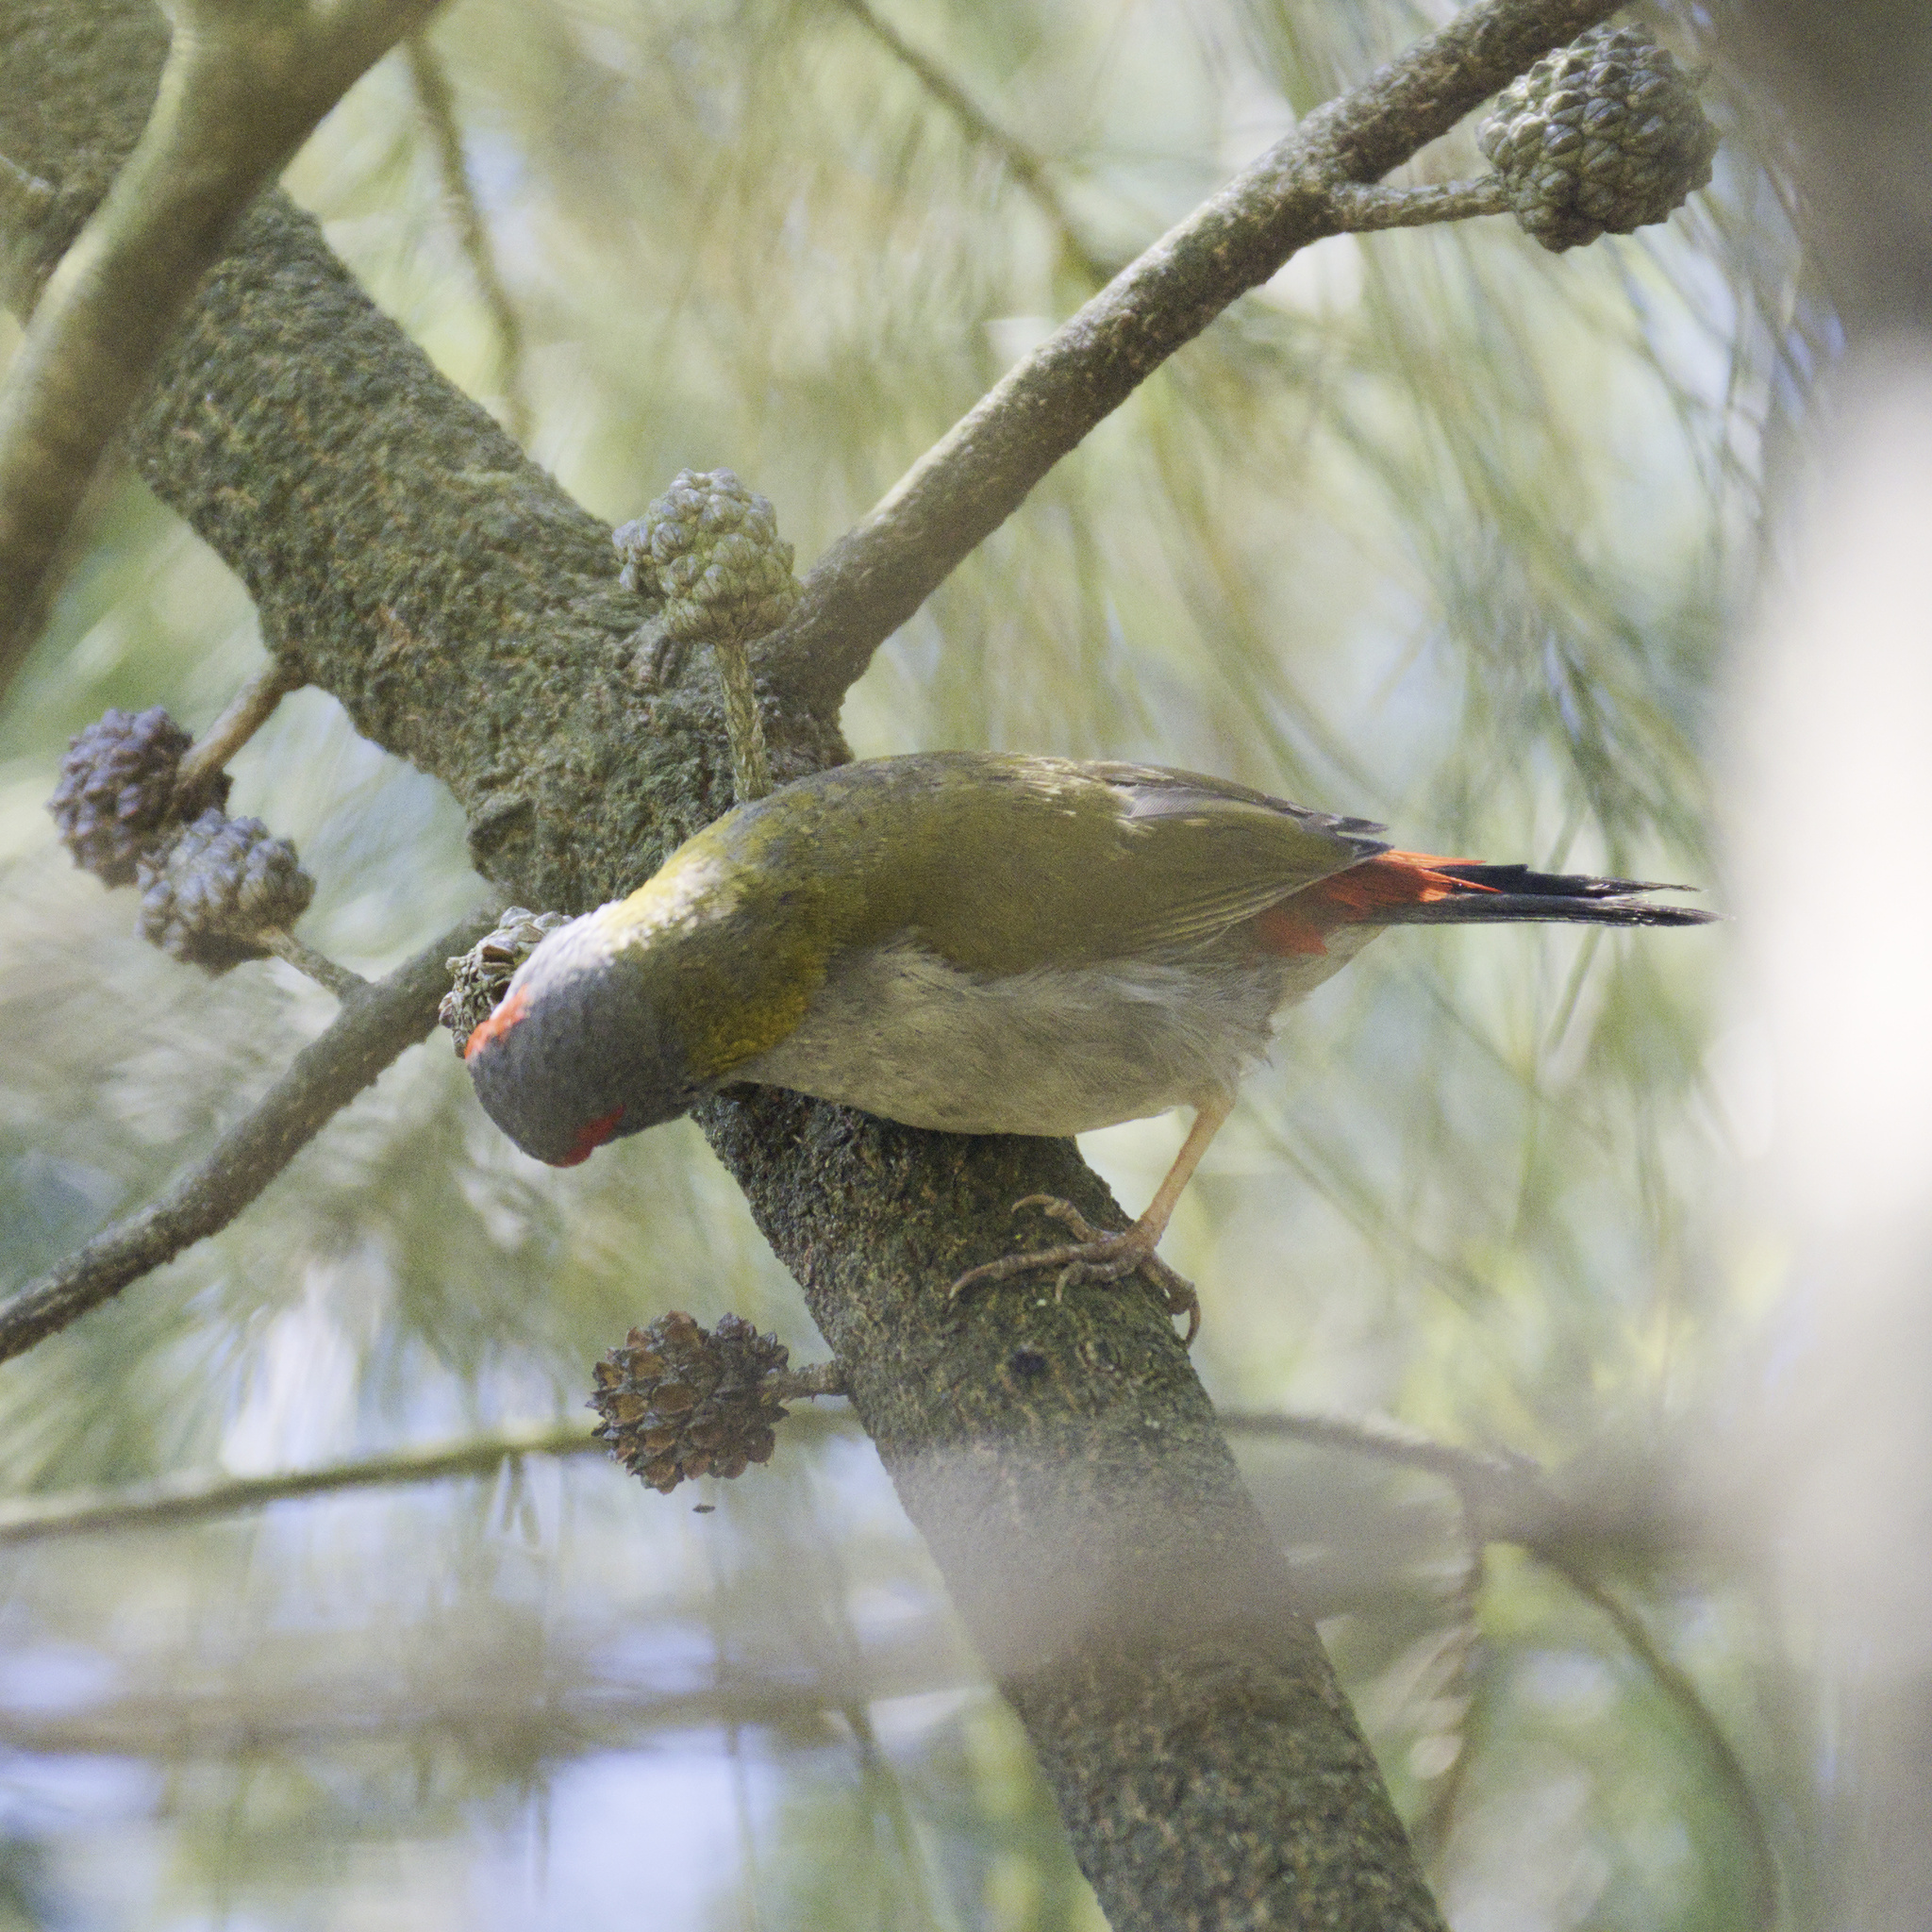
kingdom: Animalia
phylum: Chordata
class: Aves
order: Passeriformes
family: Estrildidae
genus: Neochmia
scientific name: Neochmia temporalis
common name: Red-browed finch
